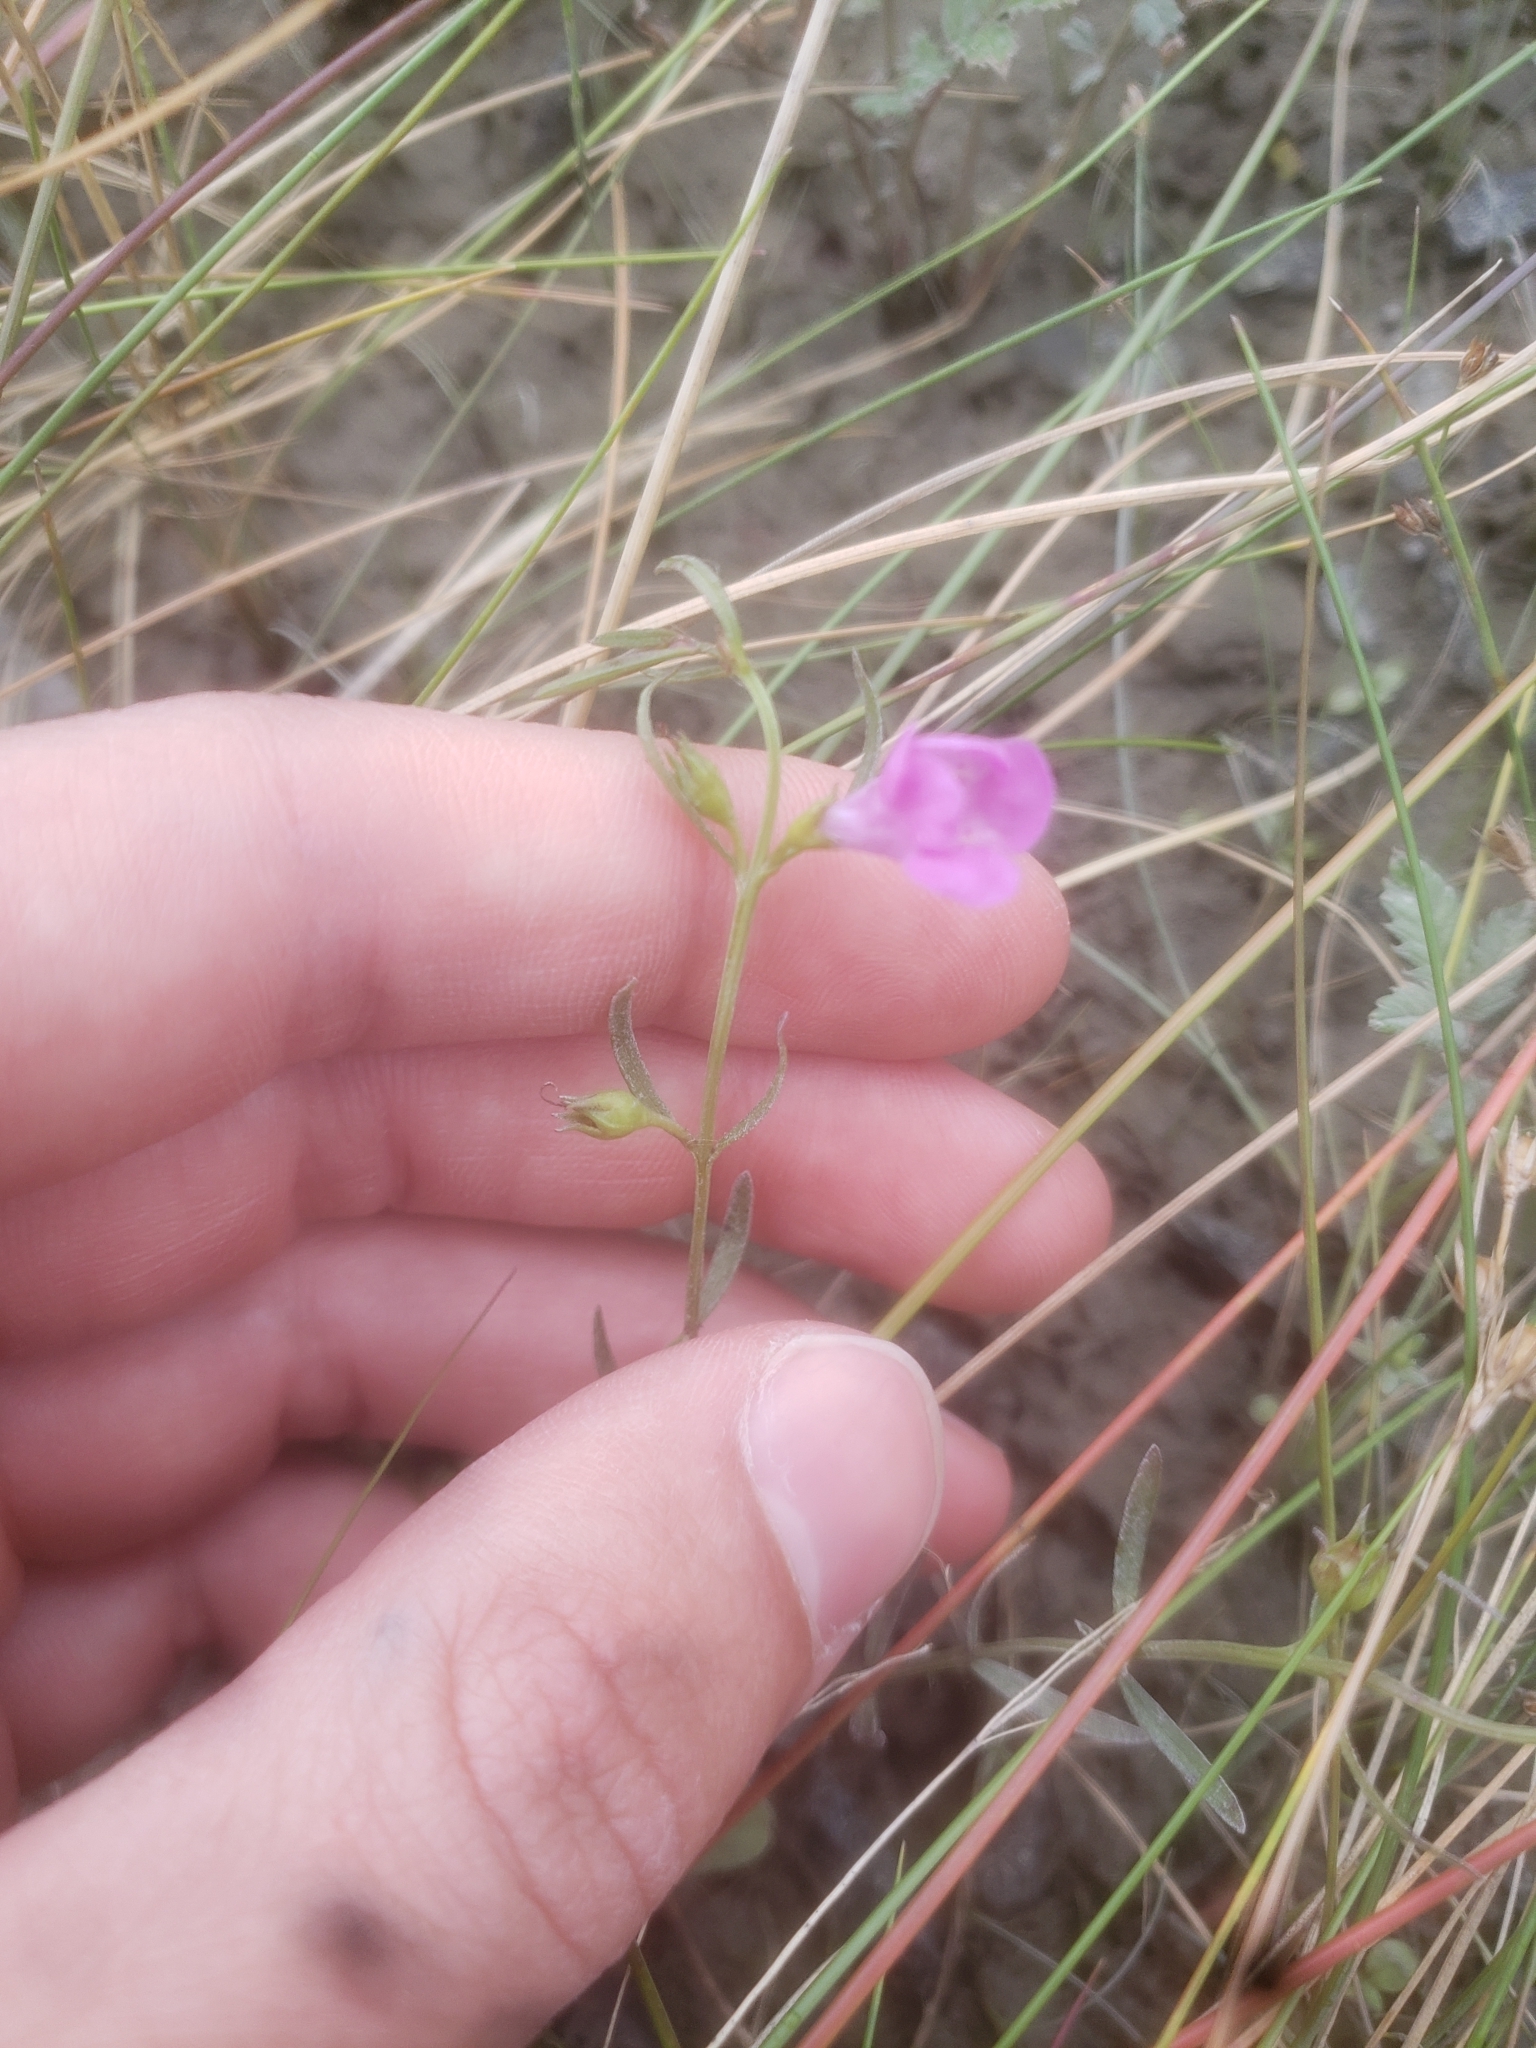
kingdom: Plantae
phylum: Tracheophyta
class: Magnoliopsida
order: Lamiales
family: Orobanchaceae
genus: Agalinis
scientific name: Agalinis purpurea
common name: Purple false foxglove
